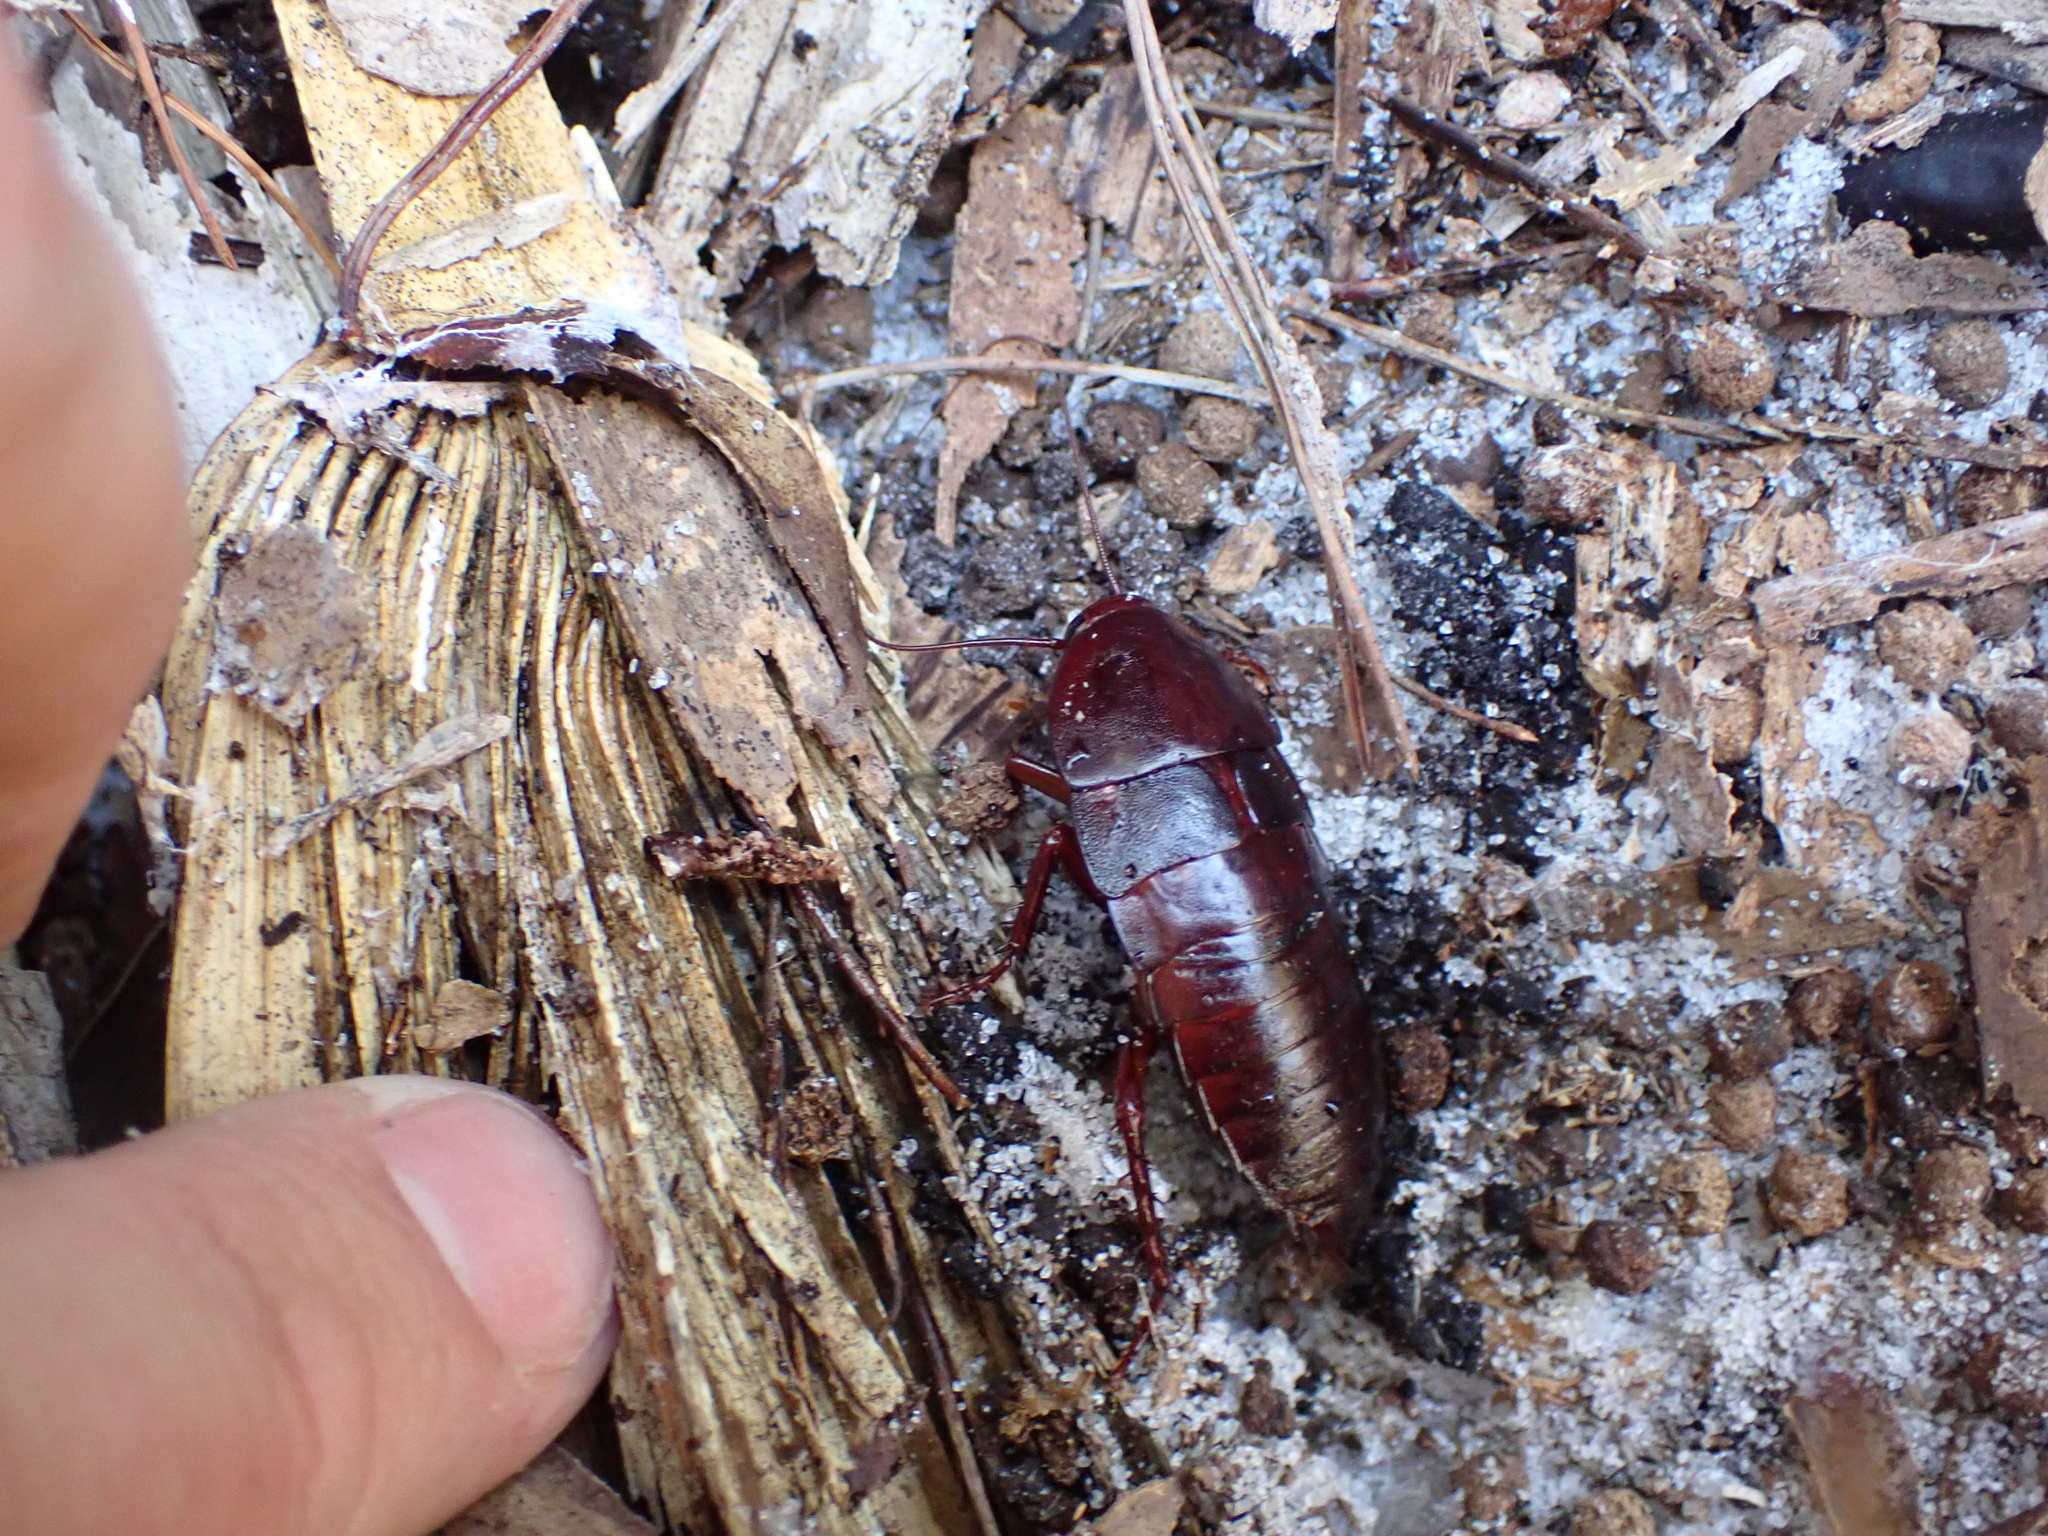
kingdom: Animalia
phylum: Arthropoda
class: Insecta
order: Blattodea
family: Blattidae
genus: Eurycotis
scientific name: Eurycotis floridana
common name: Florida cockroach
